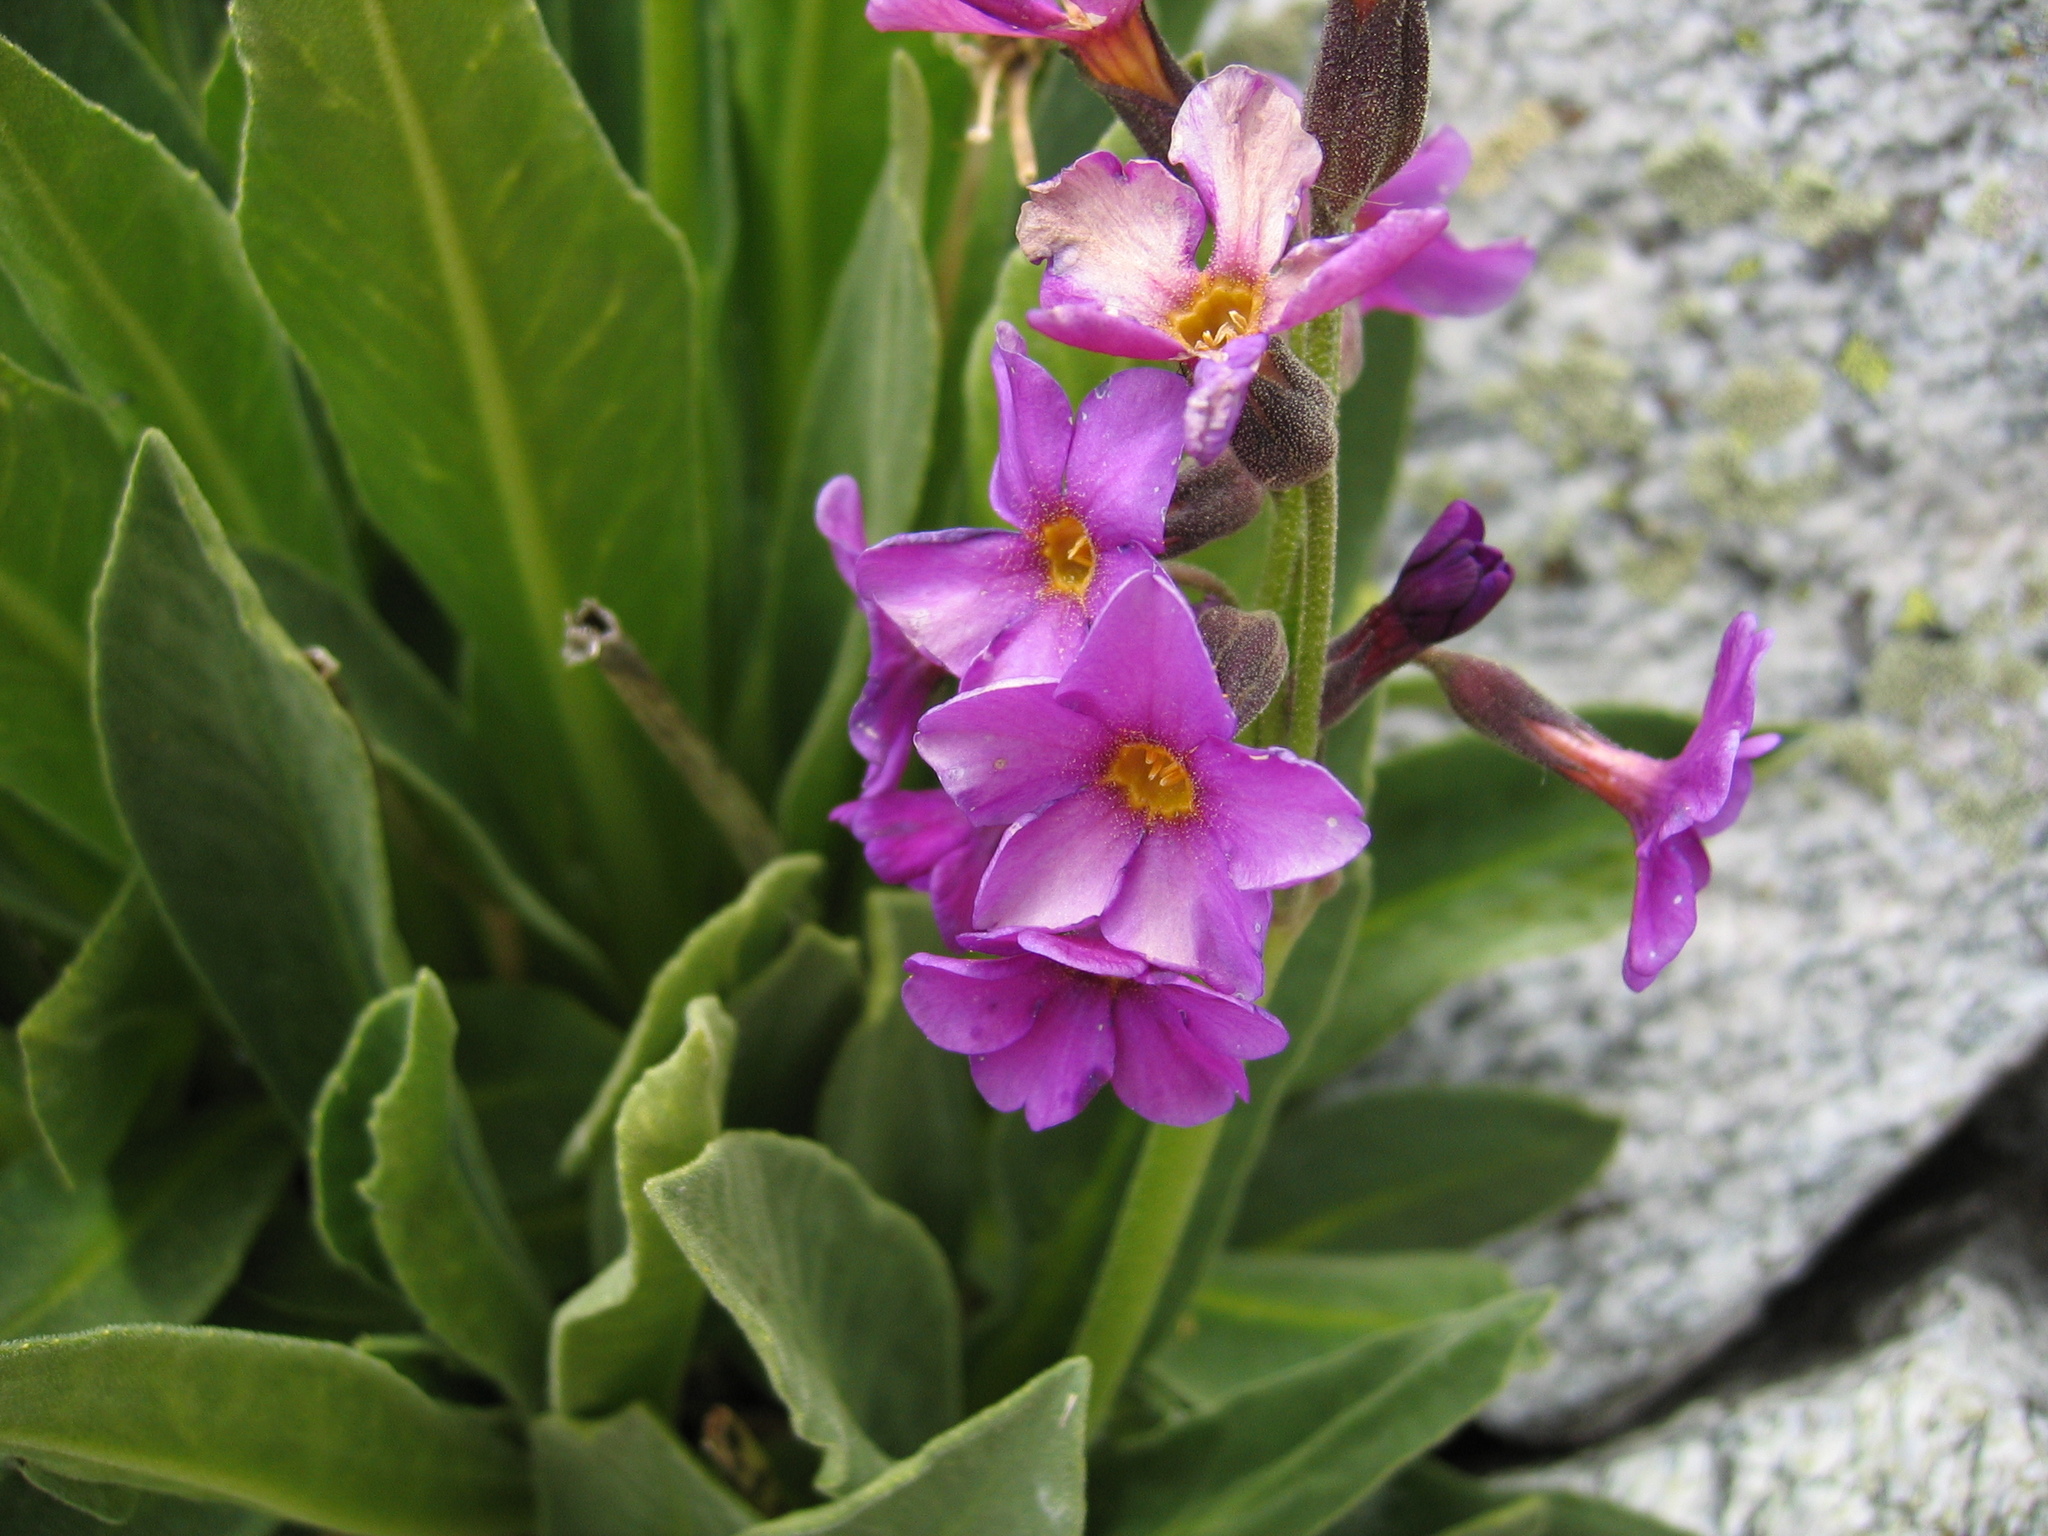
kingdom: Plantae
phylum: Tracheophyta
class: Magnoliopsida
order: Ericales
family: Primulaceae
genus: Primula
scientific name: Primula parryi
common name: Parry's primrose
